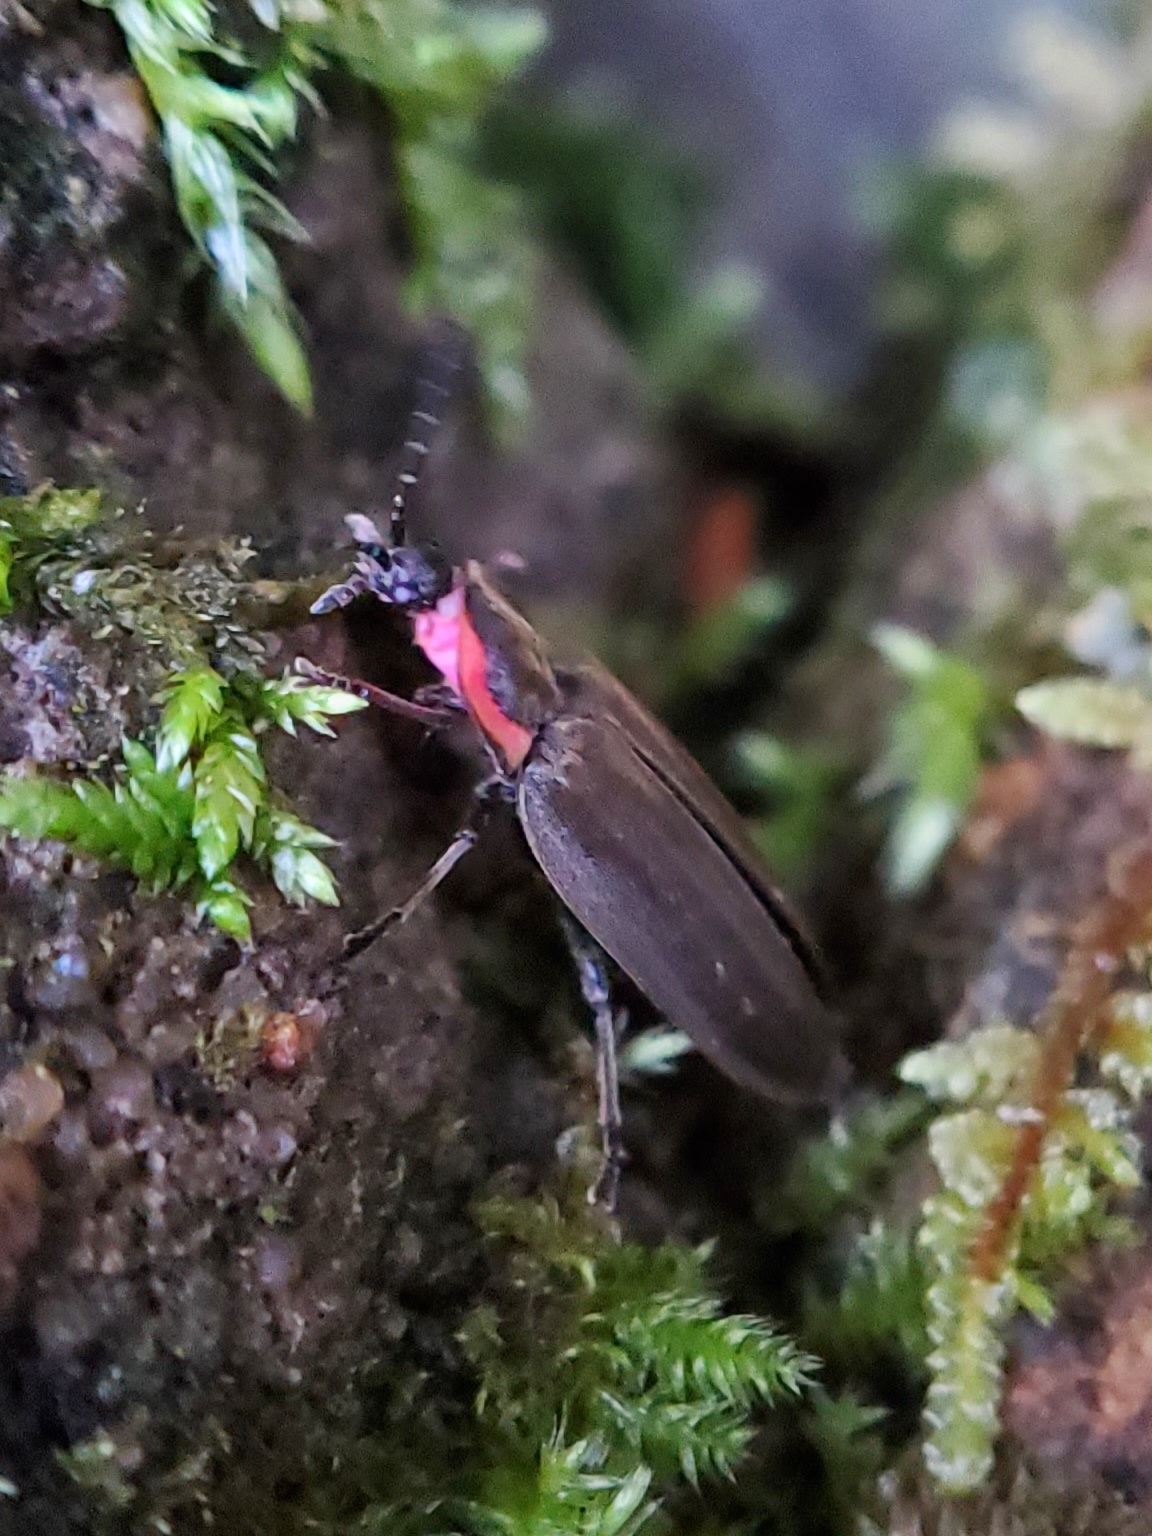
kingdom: Animalia
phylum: Arthropoda
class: Insecta
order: Coleoptera
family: Lampyridae
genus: Photinus
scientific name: Photinus corrusca
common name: Winter firefly
